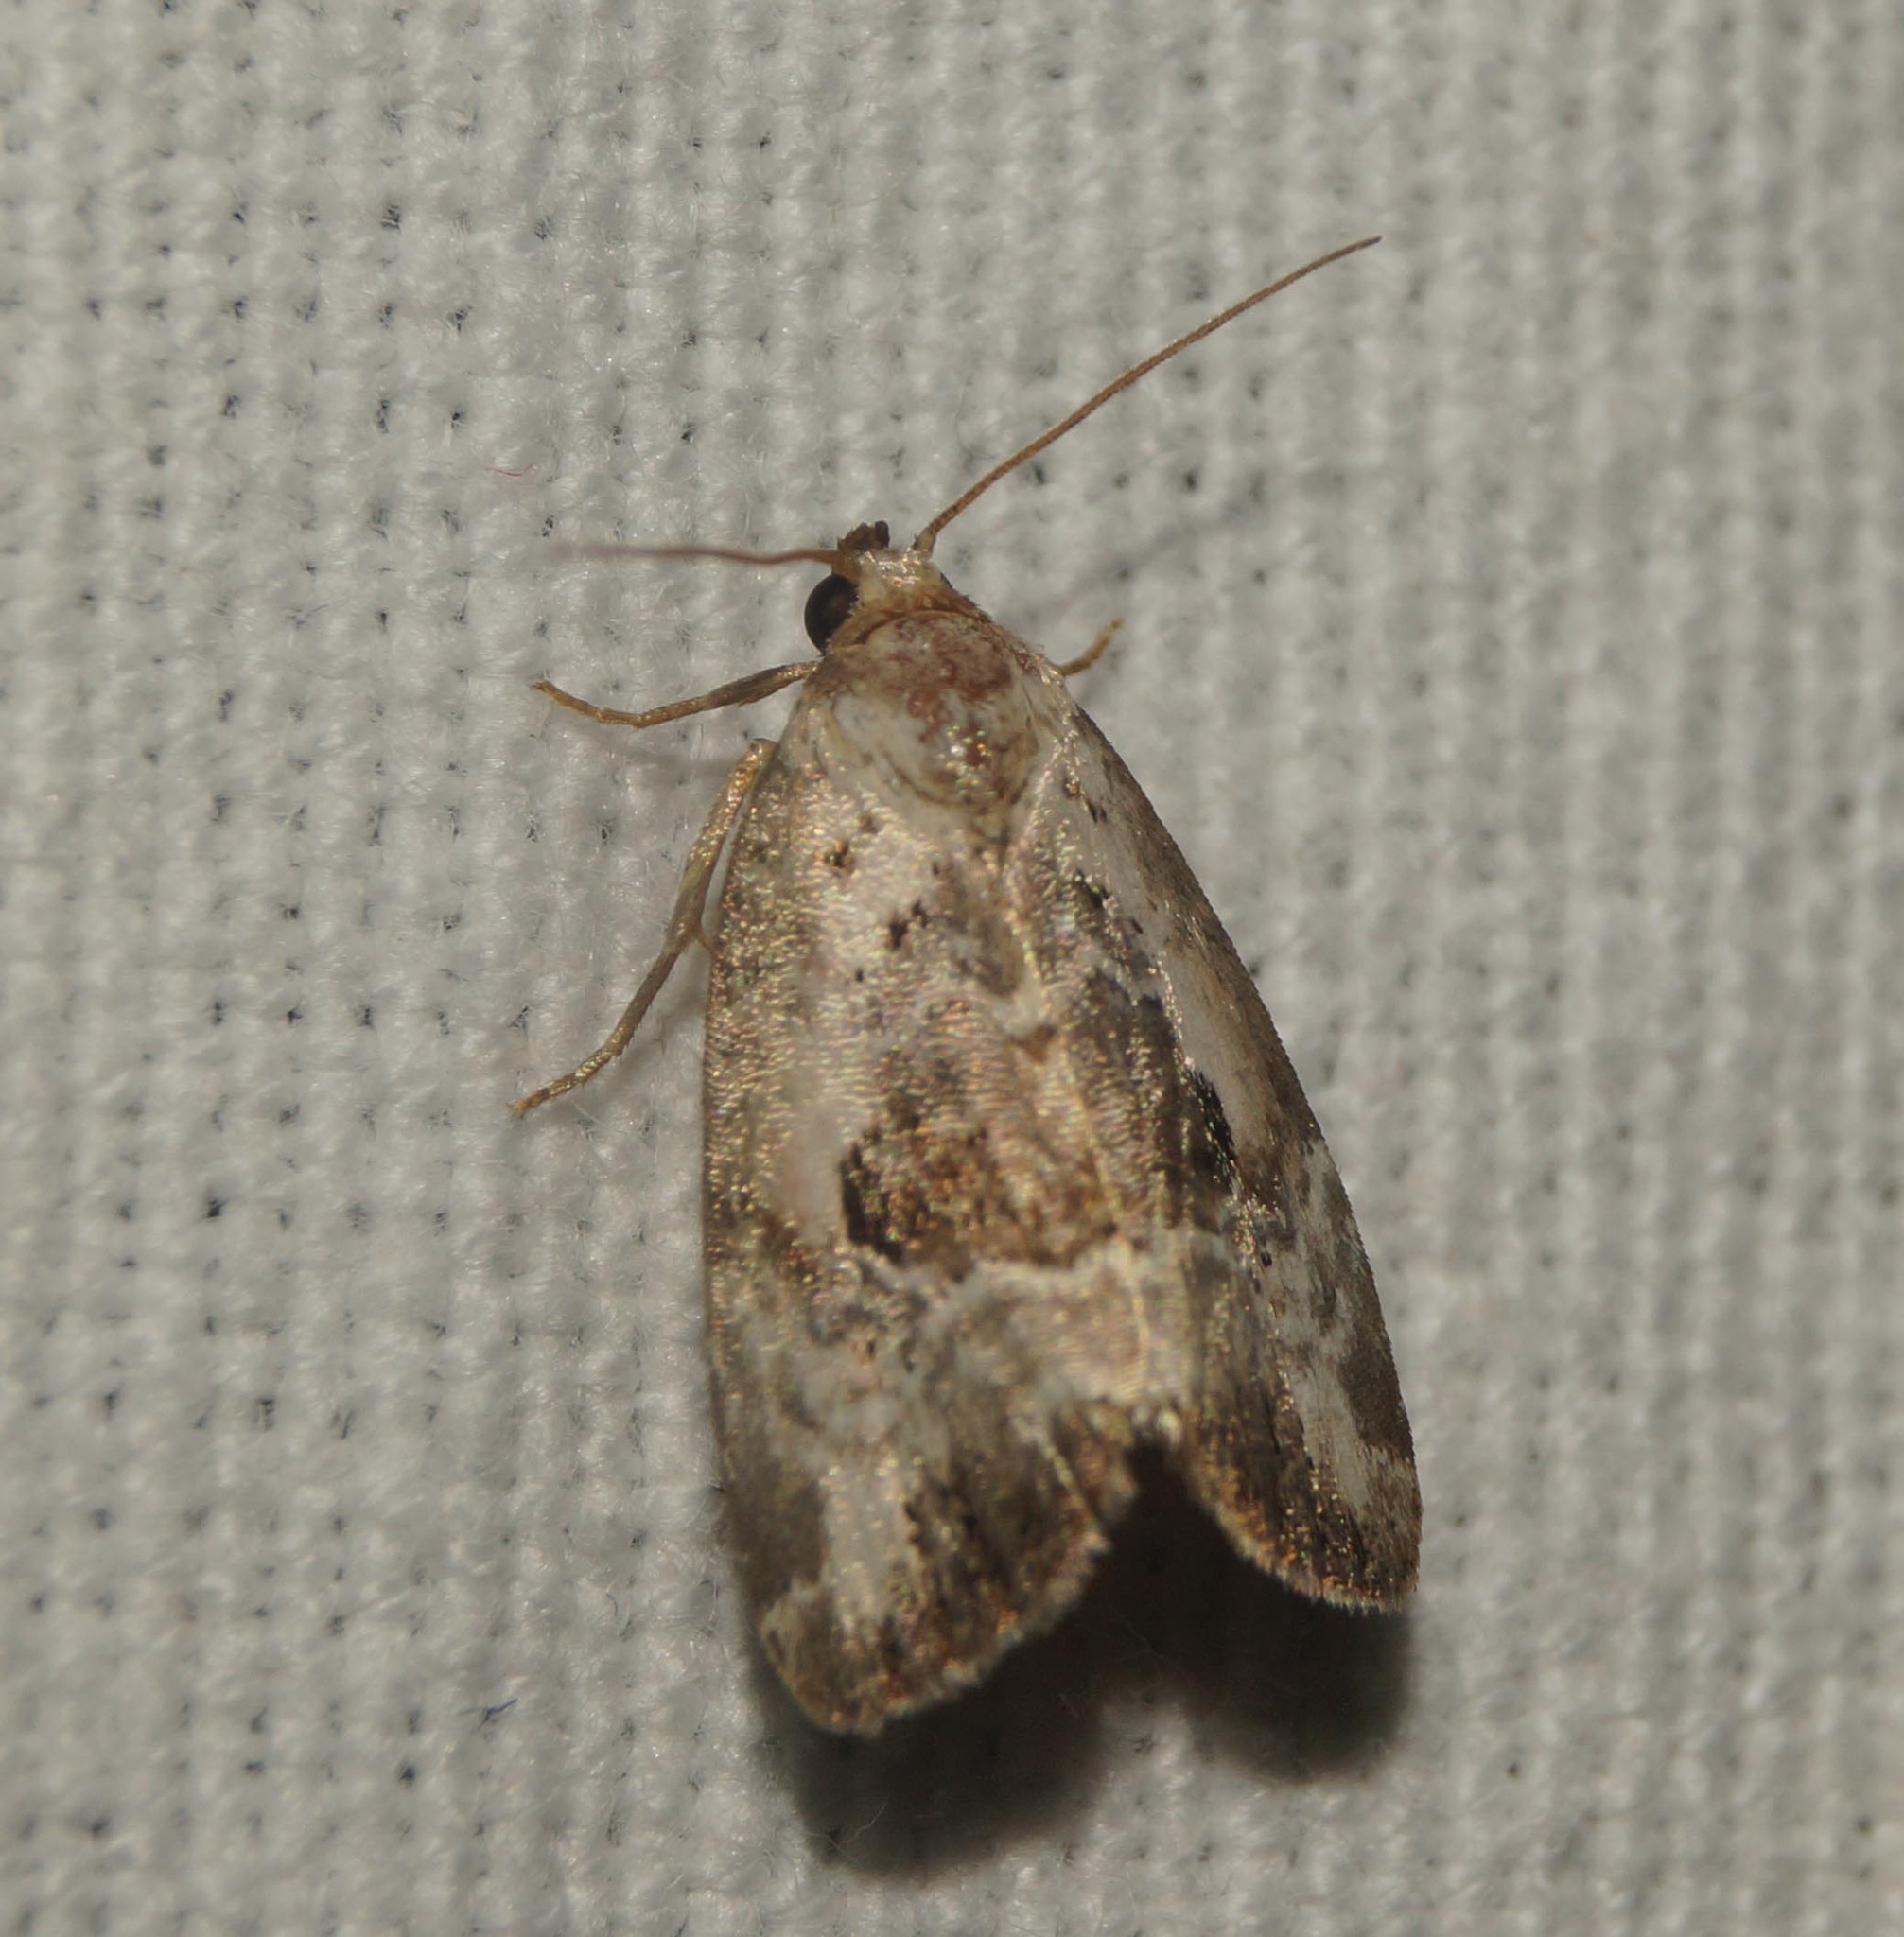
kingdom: Animalia
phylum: Arthropoda
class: Insecta
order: Lepidoptera
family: Noctuidae
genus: Elaphria
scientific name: Elaphria venustula
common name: Rosy marbled
